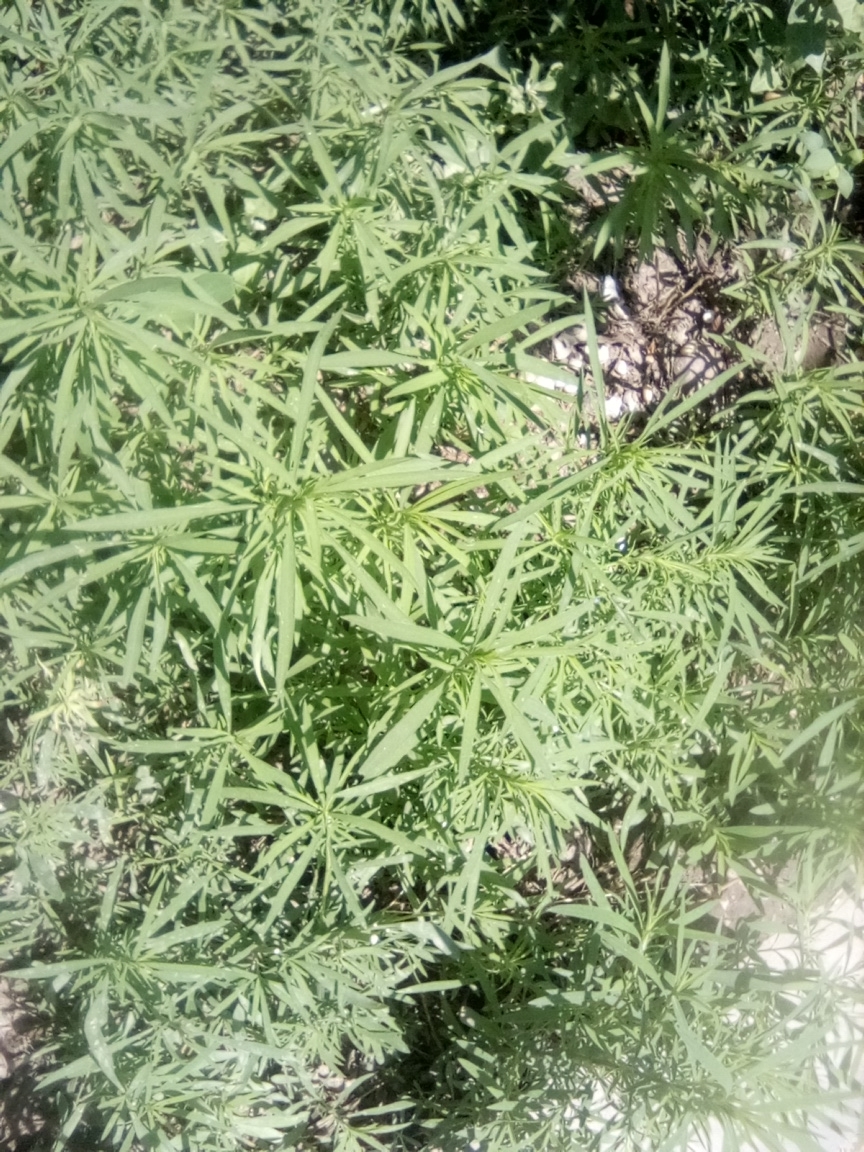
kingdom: Plantae
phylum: Tracheophyta
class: Magnoliopsida
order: Caryophyllales
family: Amaranthaceae
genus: Bassia
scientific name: Bassia scoparia
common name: Belvedere
